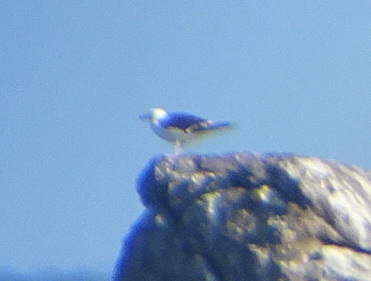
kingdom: Animalia
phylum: Chordata
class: Aves
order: Charadriiformes
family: Laridae
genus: Larus
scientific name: Larus marinus
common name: Great black-backed gull
